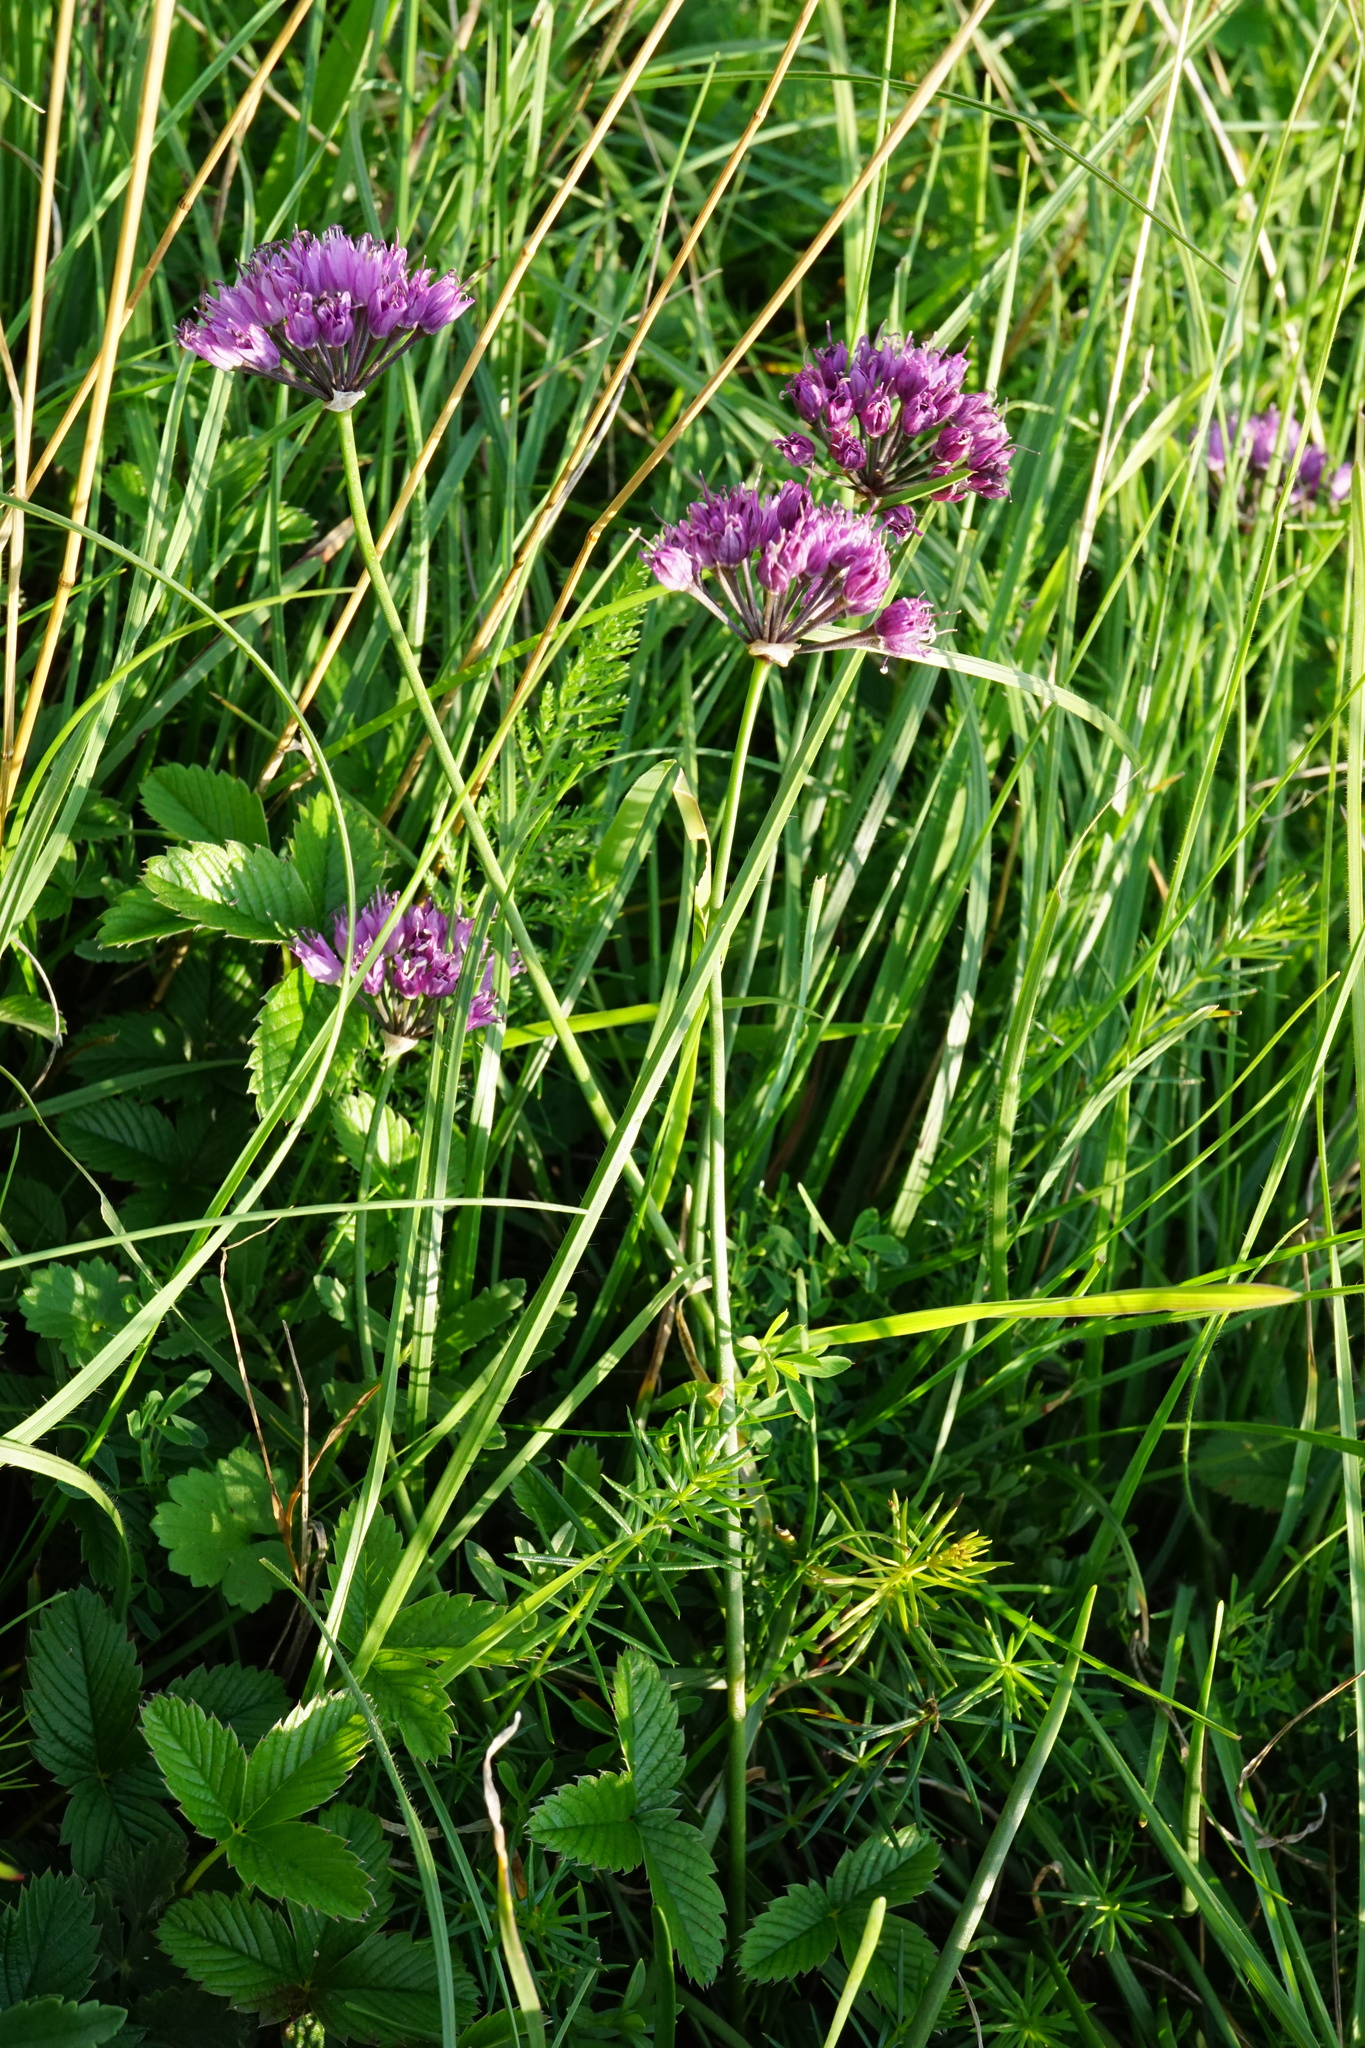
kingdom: Plantae
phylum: Tracheophyta
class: Liliopsida
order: Asparagales
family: Amaryllidaceae
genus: Allium
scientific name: Allium lusitanicum
